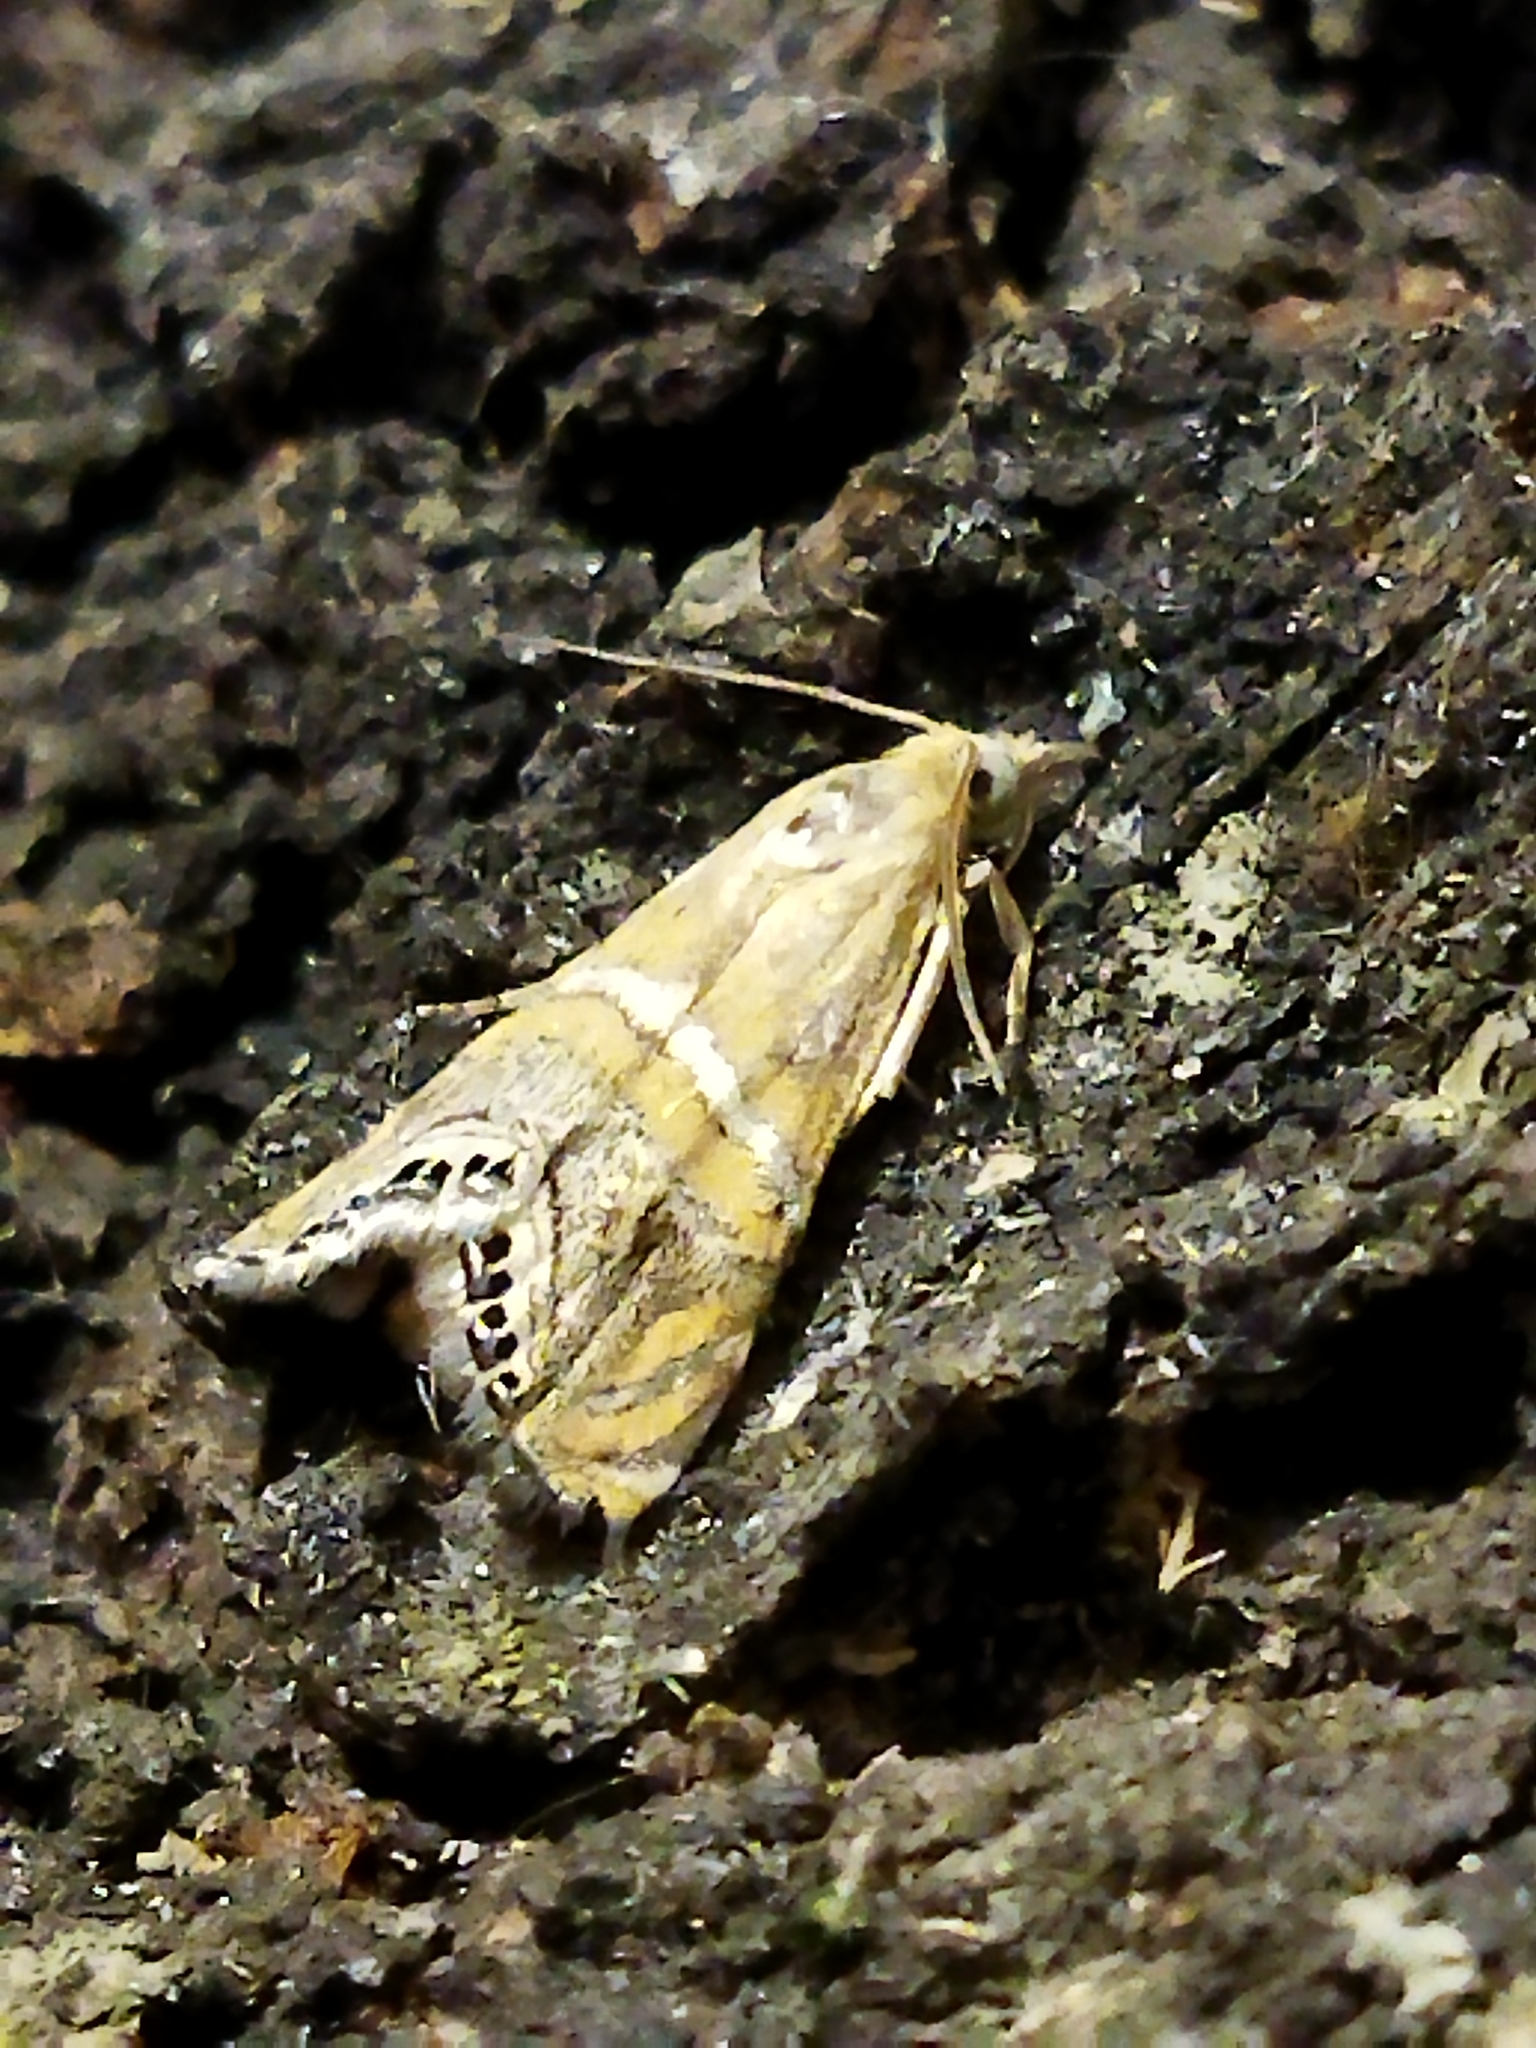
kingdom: Animalia
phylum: Arthropoda
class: Insecta
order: Lepidoptera
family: Crambidae
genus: Euchromius
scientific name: Euchromius bella
